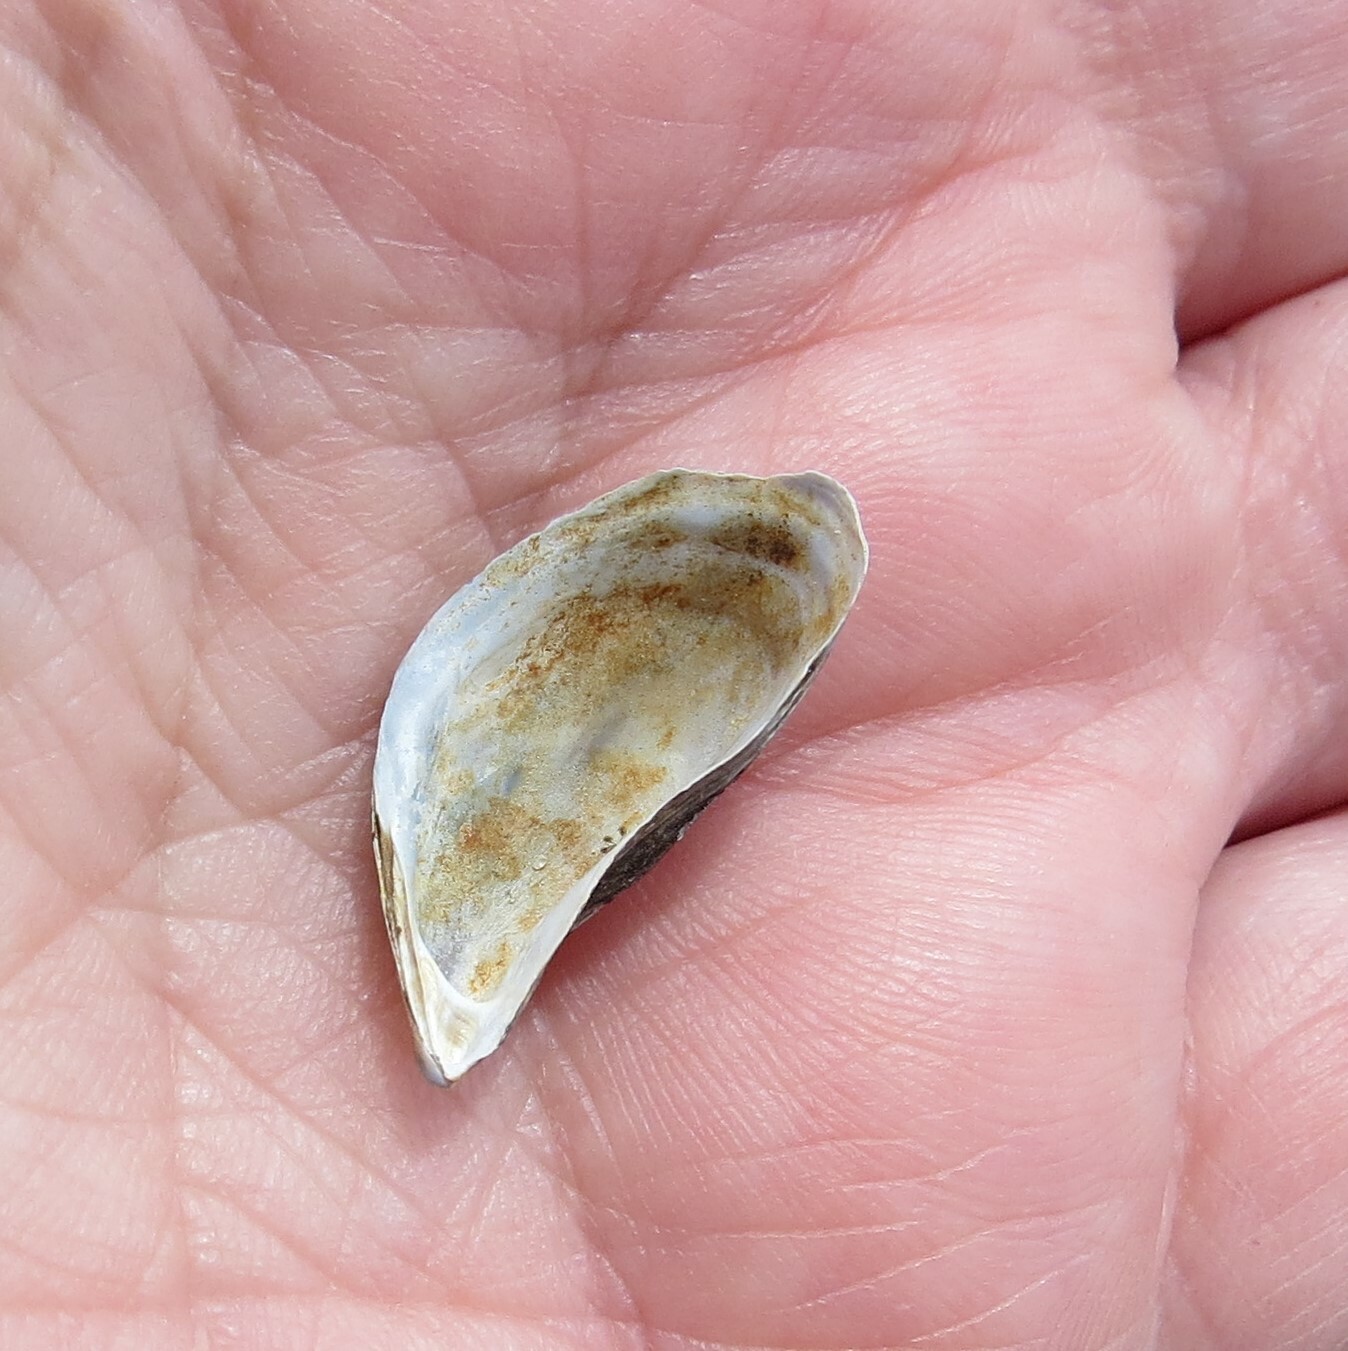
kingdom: Animalia
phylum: Mollusca
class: Bivalvia
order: Myida
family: Dreissenidae
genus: Dreissena
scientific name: Dreissena polymorpha
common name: Zebra mussel
